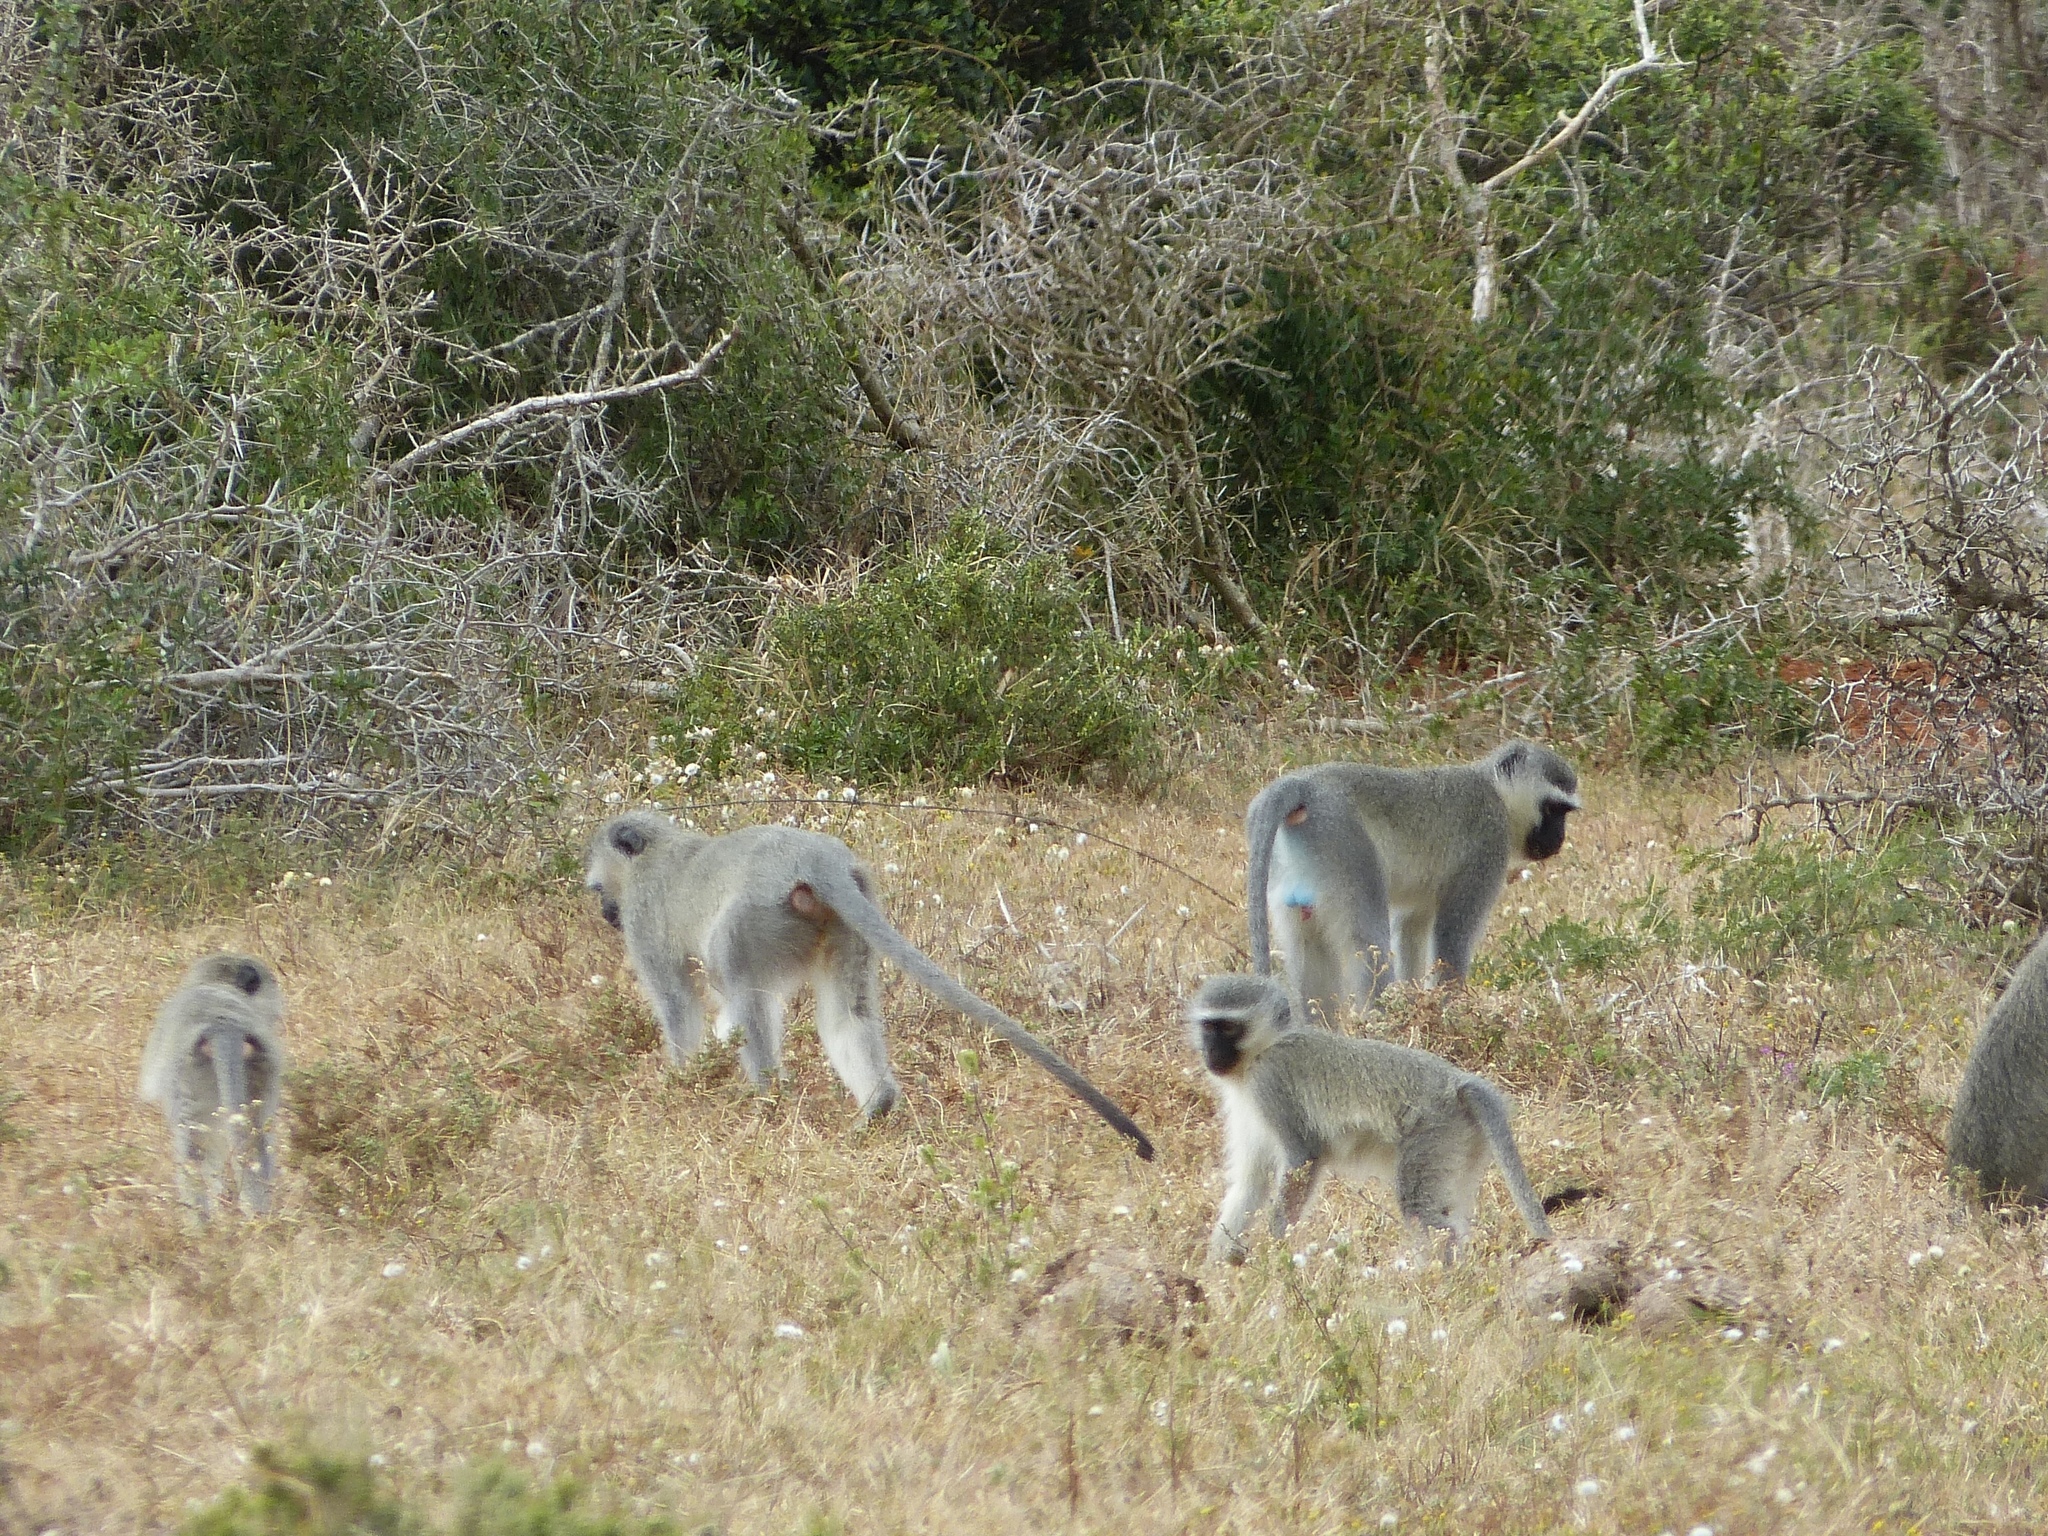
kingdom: Animalia
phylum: Chordata
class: Mammalia
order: Primates
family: Cercopithecidae
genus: Chlorocebus
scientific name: Chlorocebus pygerythrus
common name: Vervet monkey
